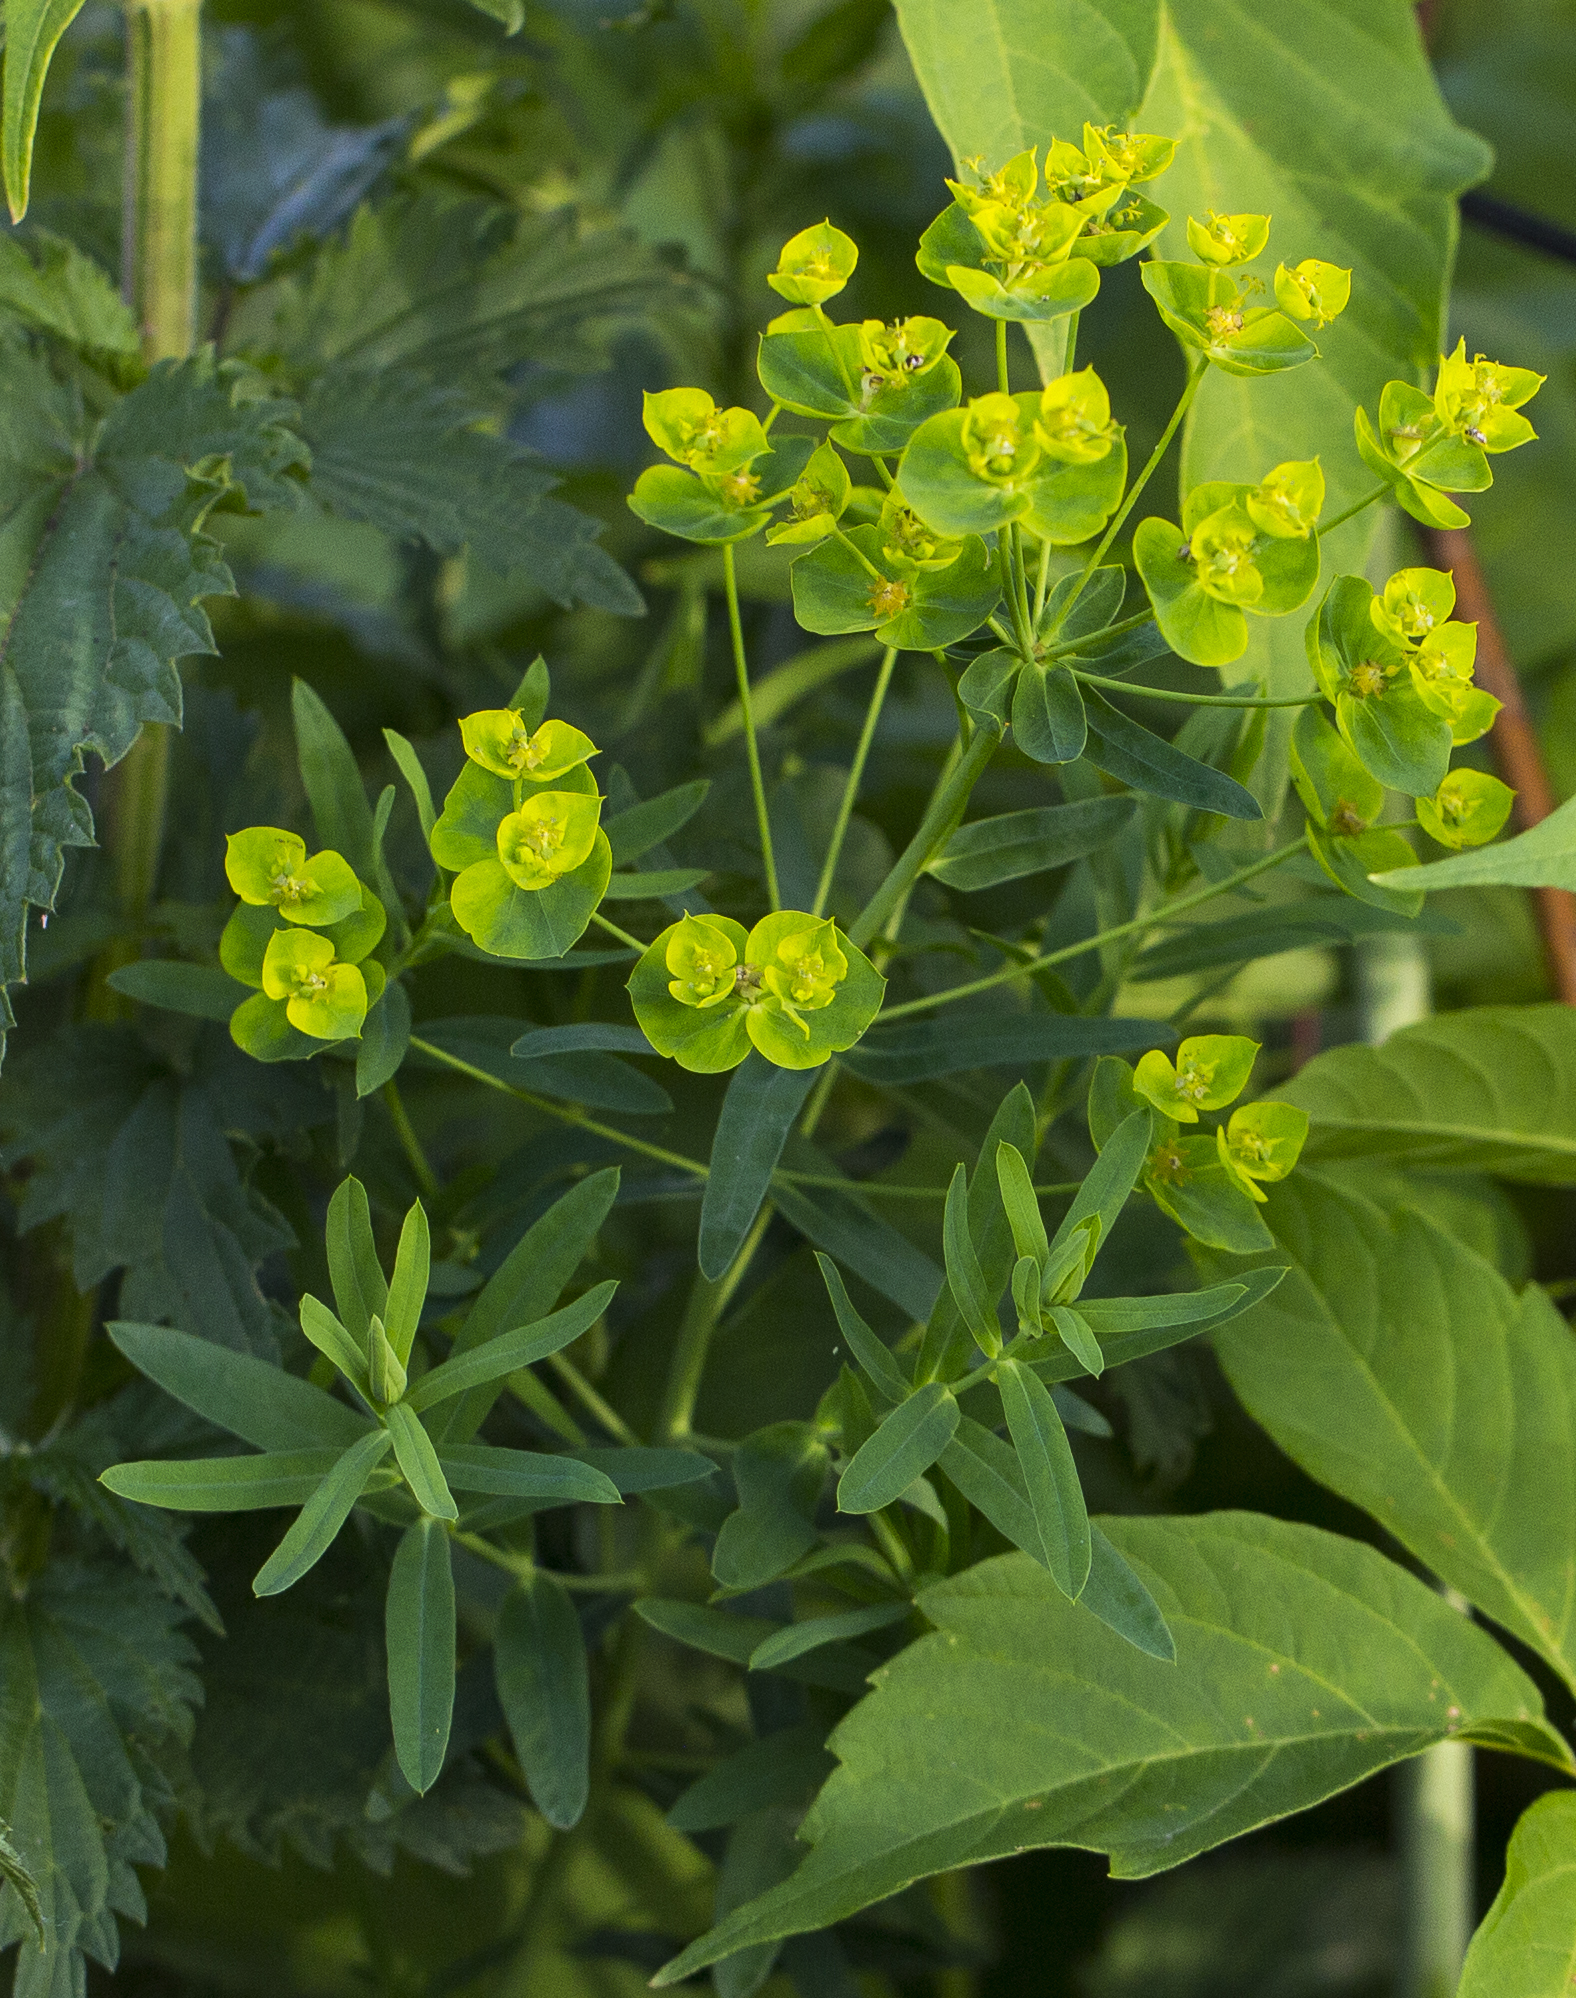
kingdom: Plantae
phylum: Tracheophyta
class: Magnoliopsida
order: Malpighiales
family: Euphorbiaceae
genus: Euphorbia
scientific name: Euphorbia virgata
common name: Leafy spurge
